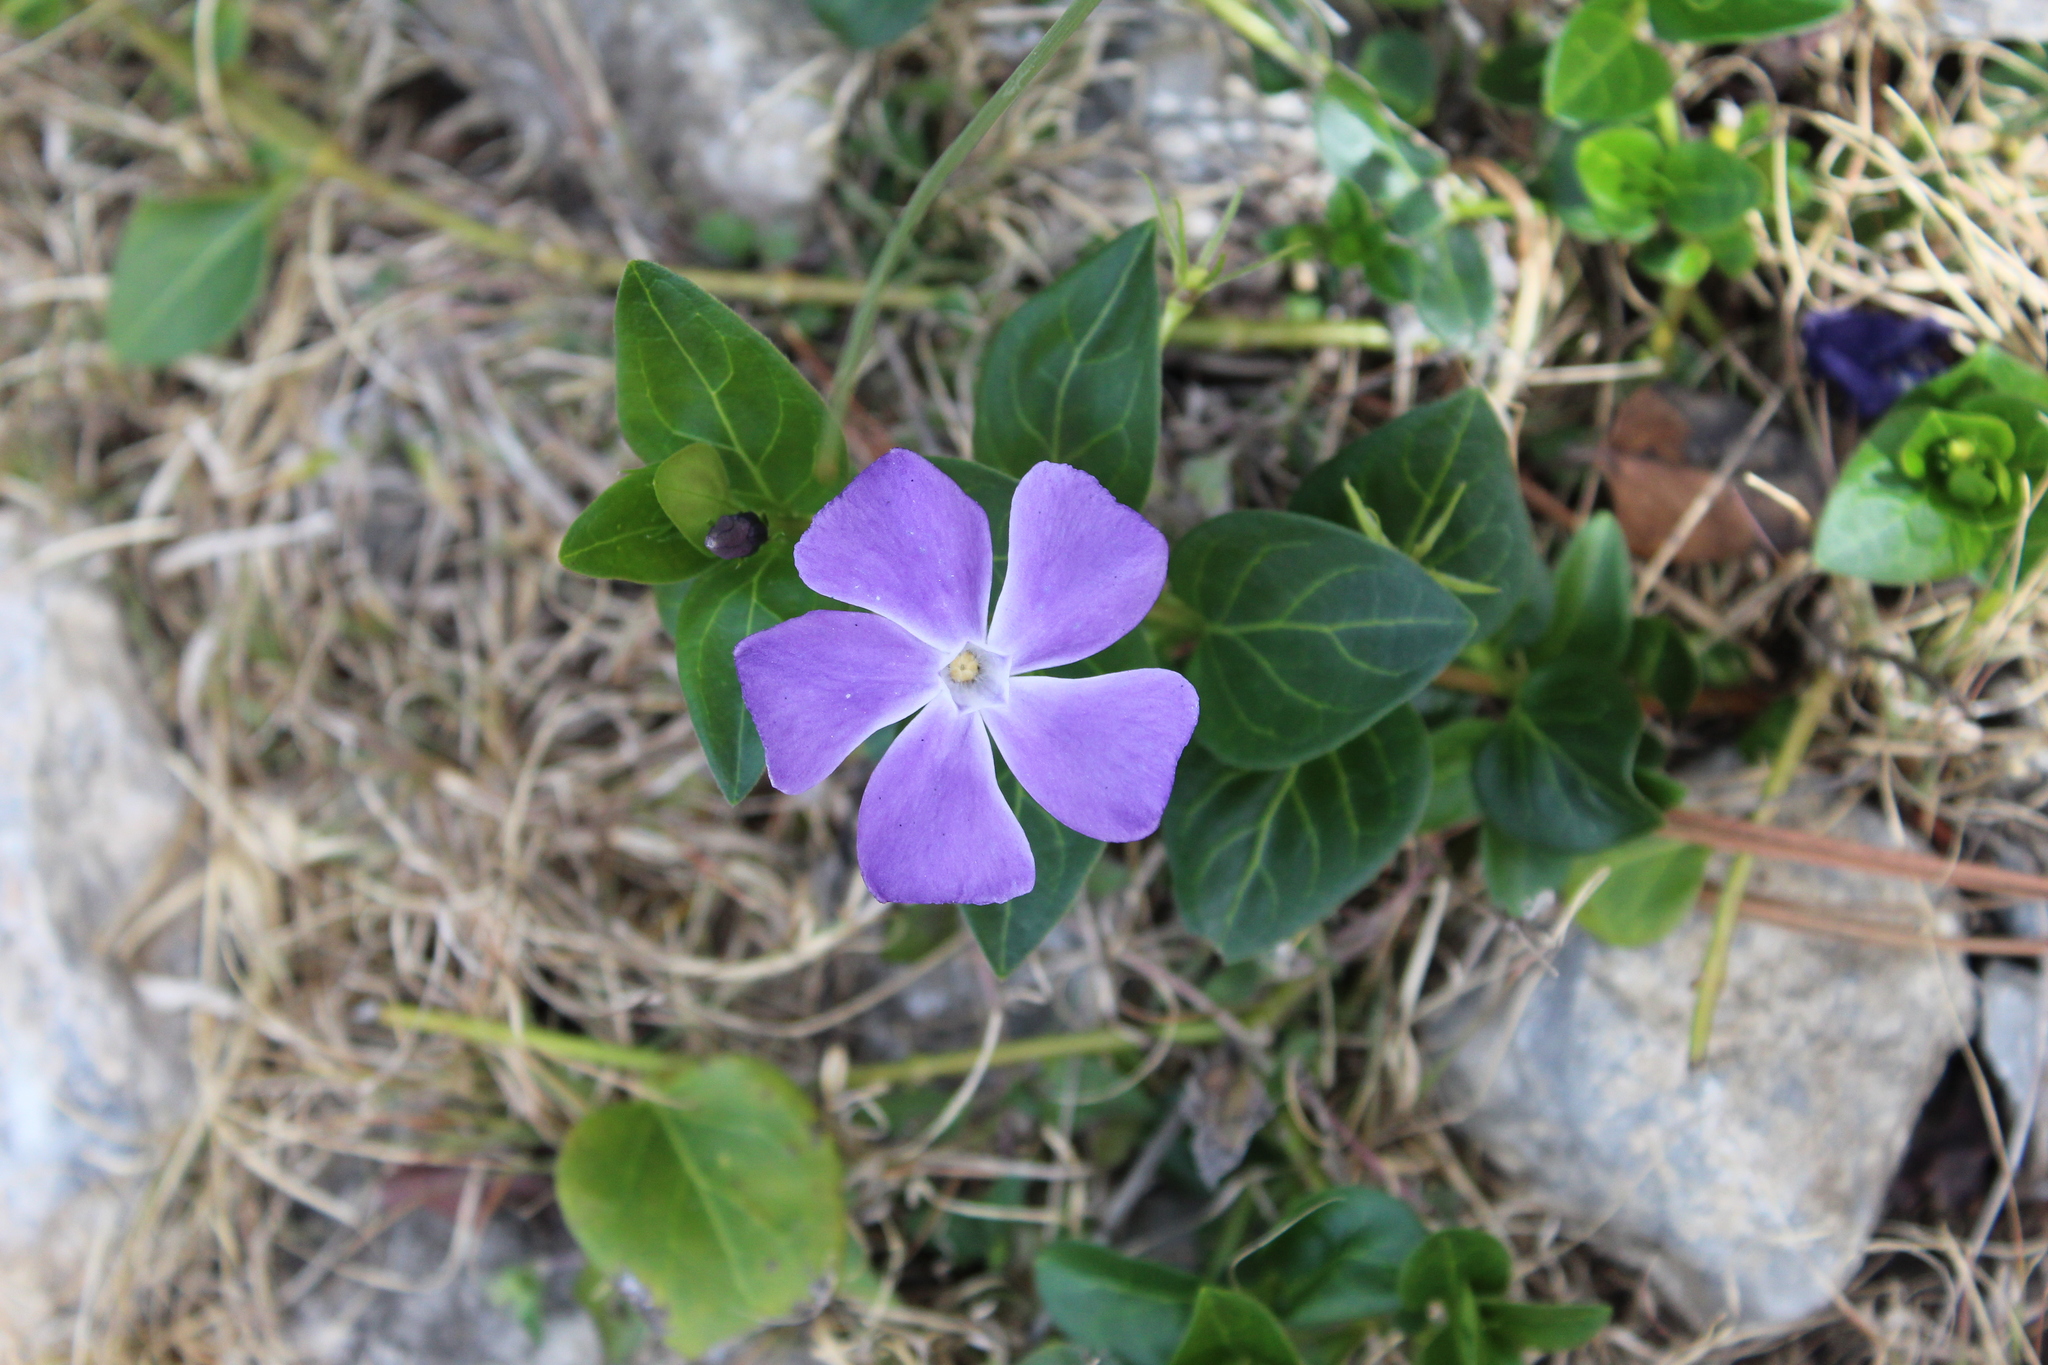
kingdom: Plantae
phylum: Tracheophyta
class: Magnoliopsida
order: Gentianales
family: Apocynaceae
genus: Vinca
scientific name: Vinca major
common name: Greater periwinkle
